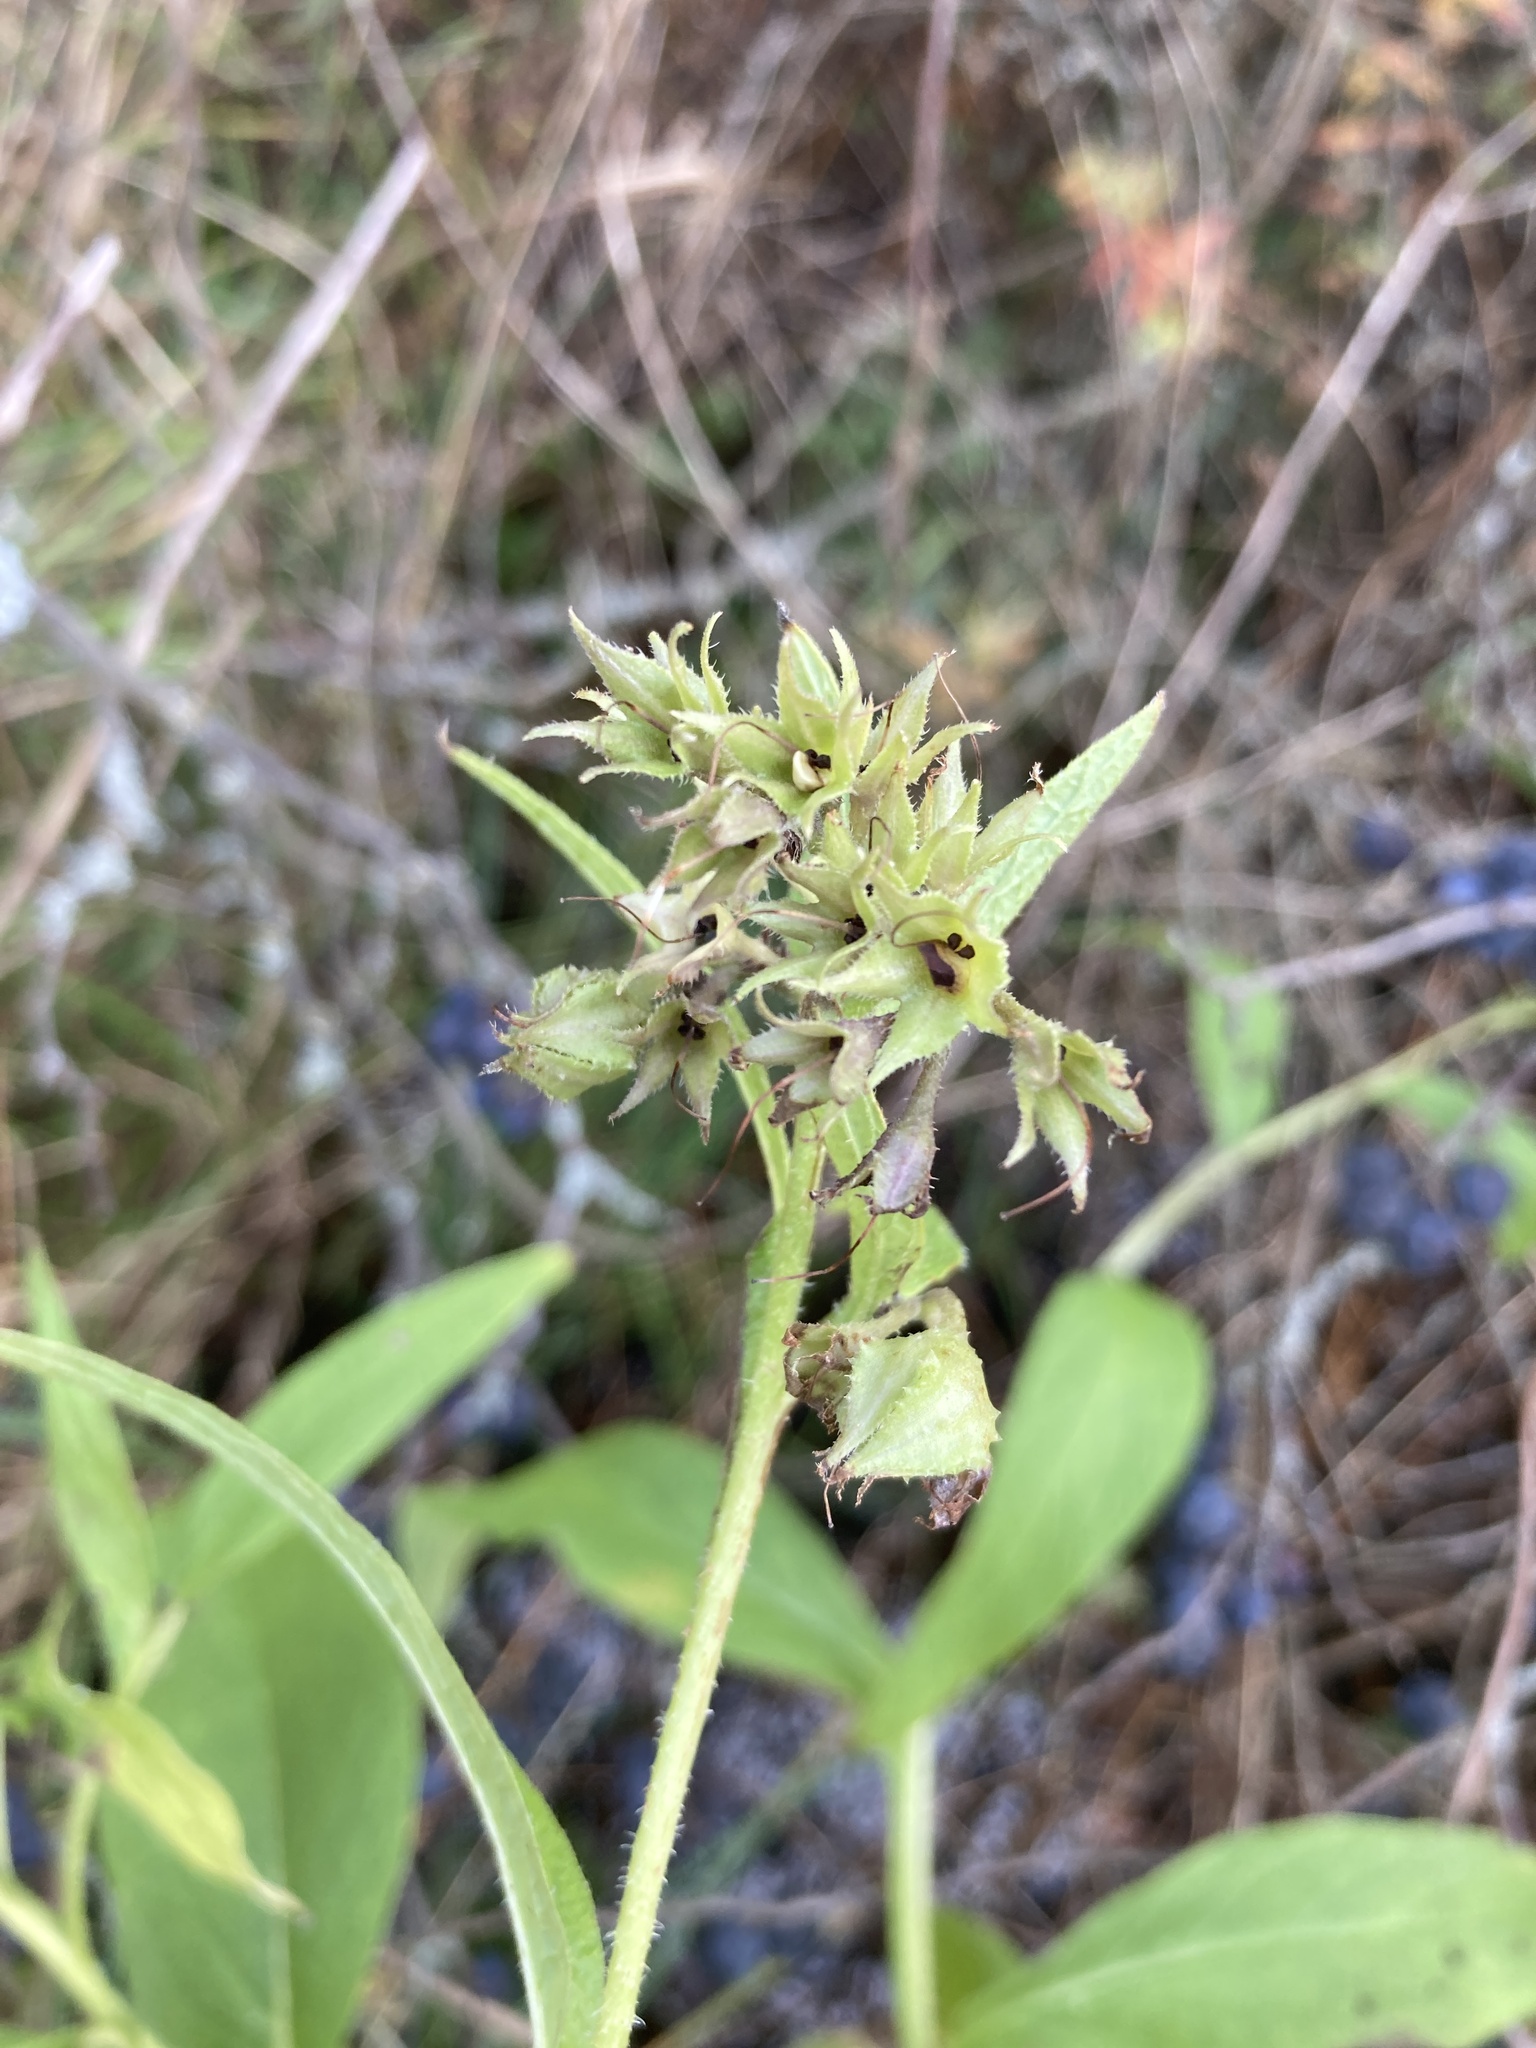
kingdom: Plantae
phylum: Tracheophyta
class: Magnoliopsida
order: Boraginales
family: Boraginaceae
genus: Symphytum
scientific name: Symphytum officinale
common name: Common comfrey
